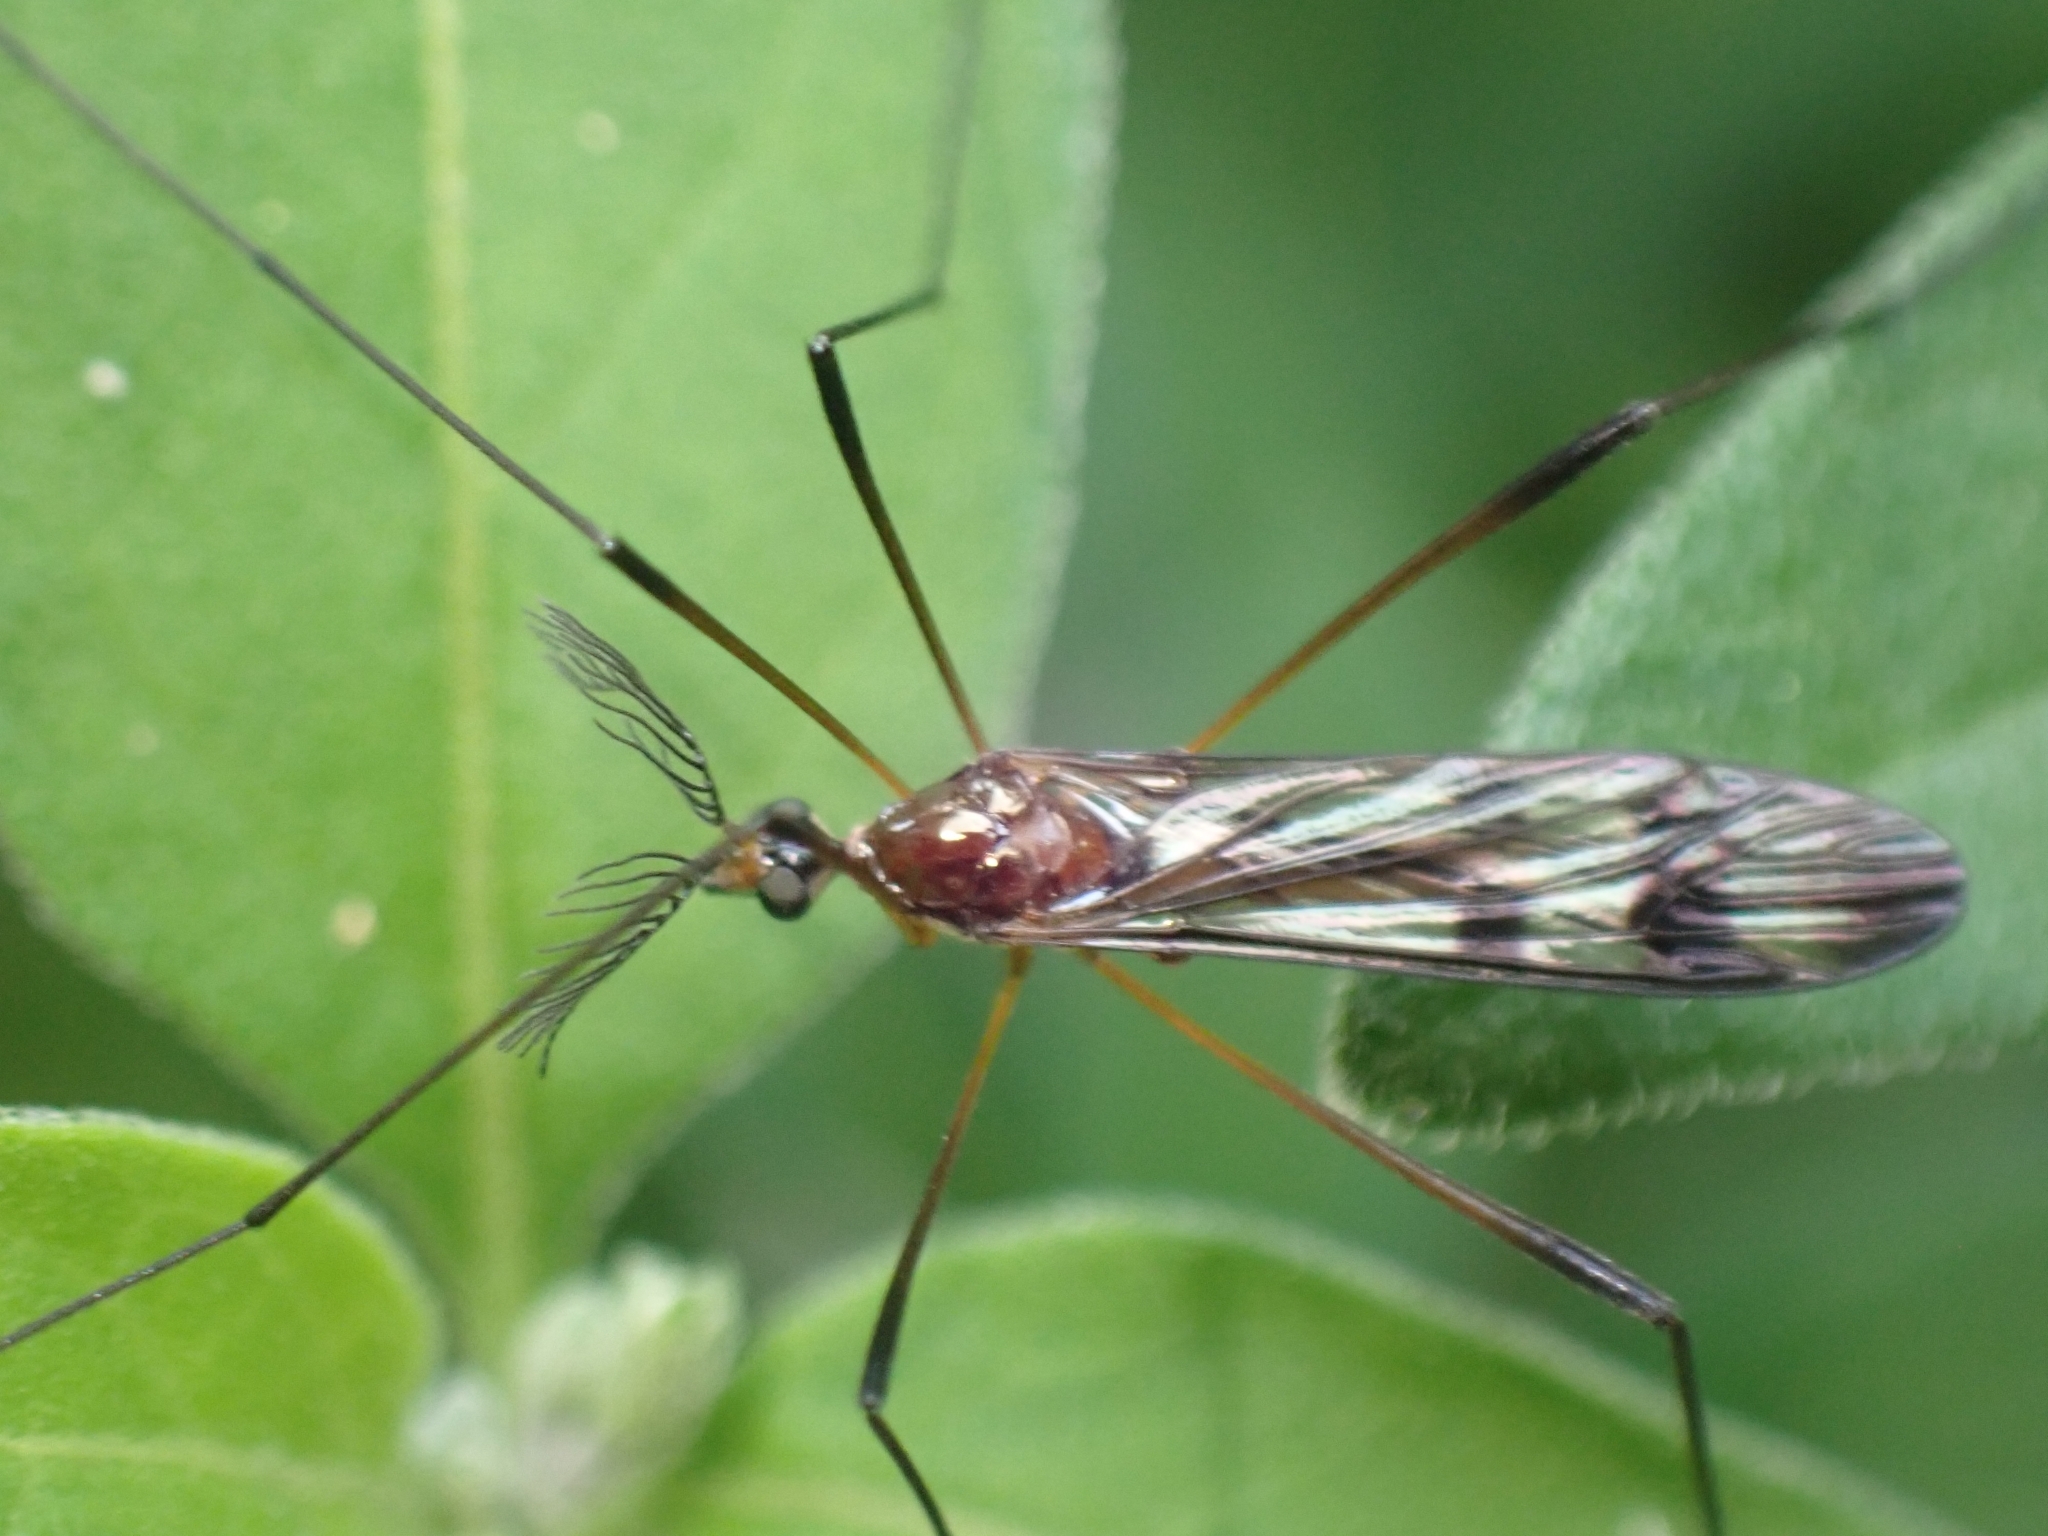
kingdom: Animalia
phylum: Arthropoda
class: Insecta
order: Diptera
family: Limoniidae
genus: Gynoplistia
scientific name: Gynoplistia cuprea
